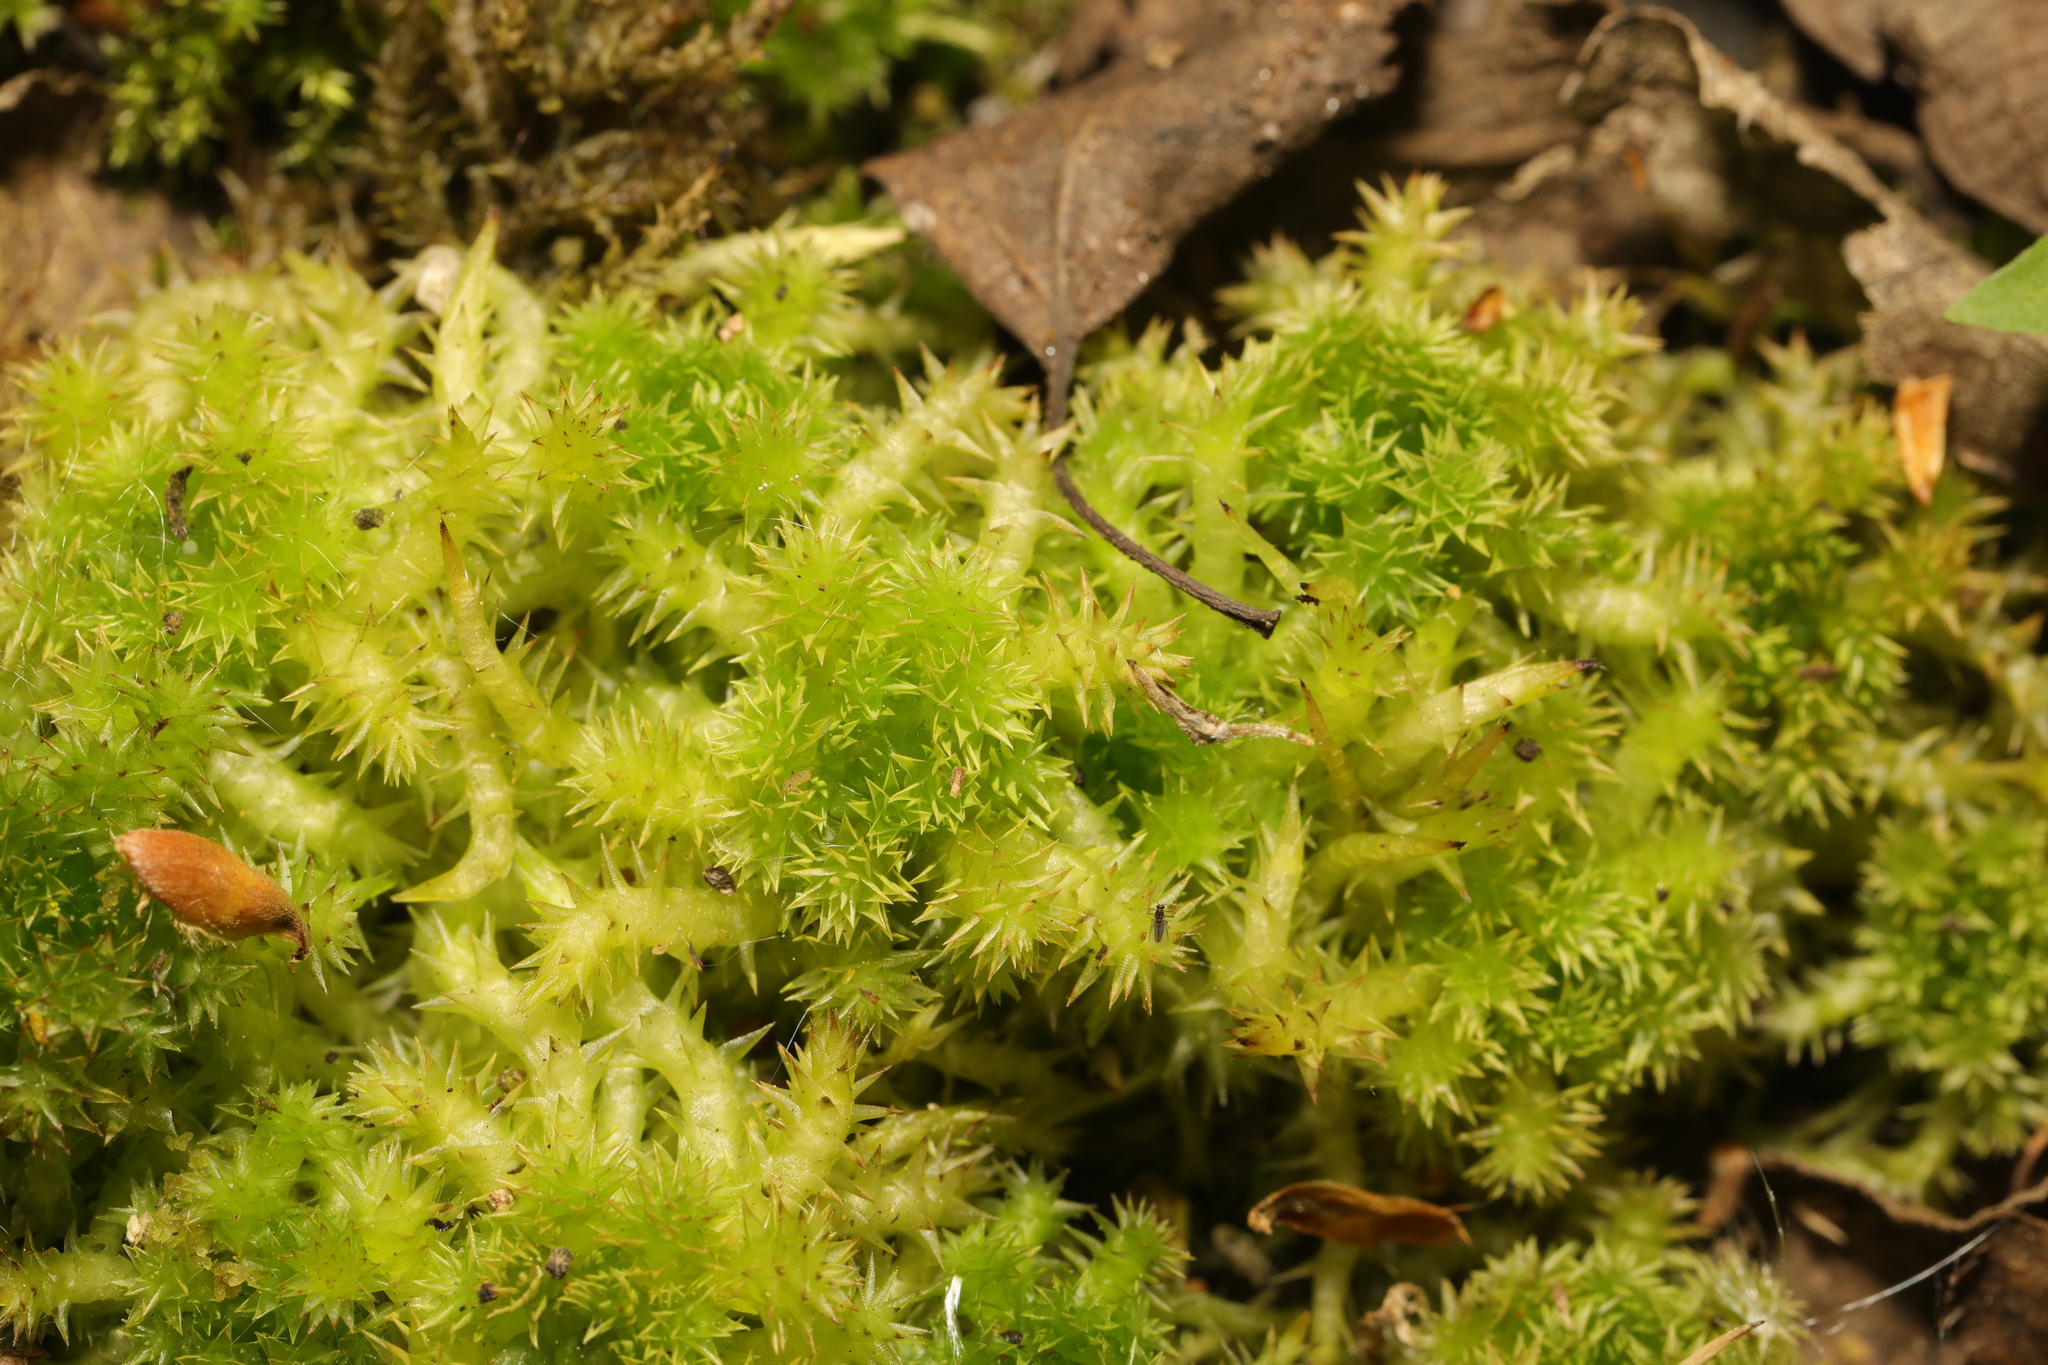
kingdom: Plantae
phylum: Bryophyta
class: Sphagnopsida
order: Sphagnales
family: Sphagnaceae
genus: Sphagnum
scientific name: Sphagnum squarrosum
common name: Shaggy peat moss
